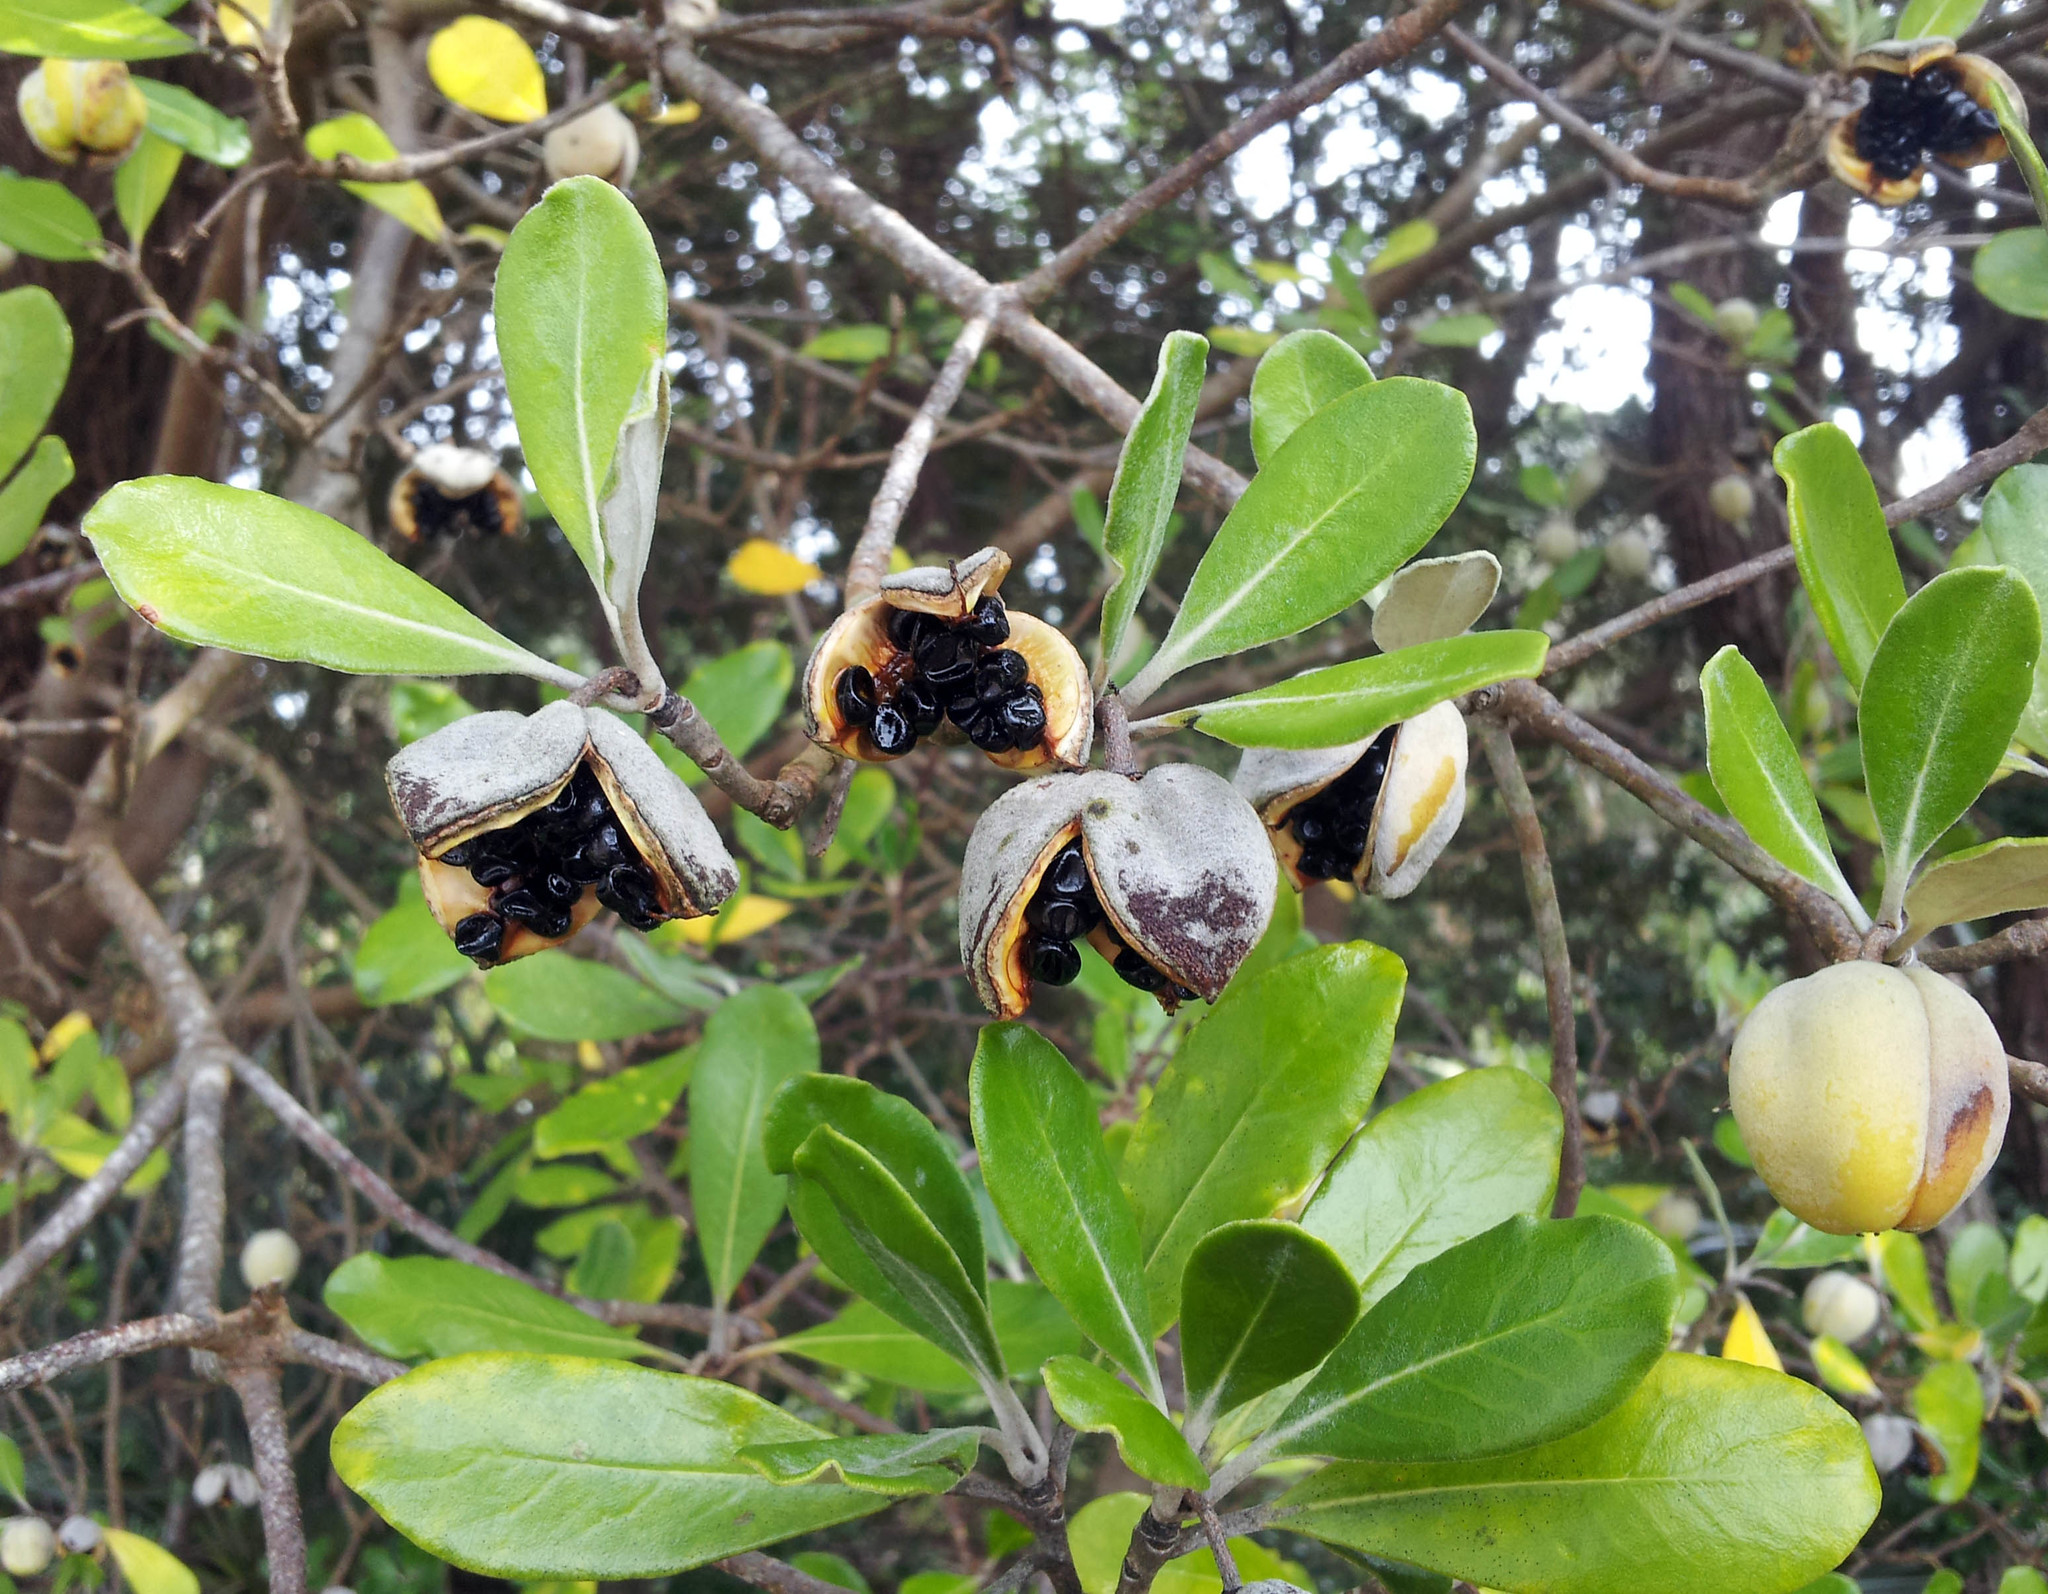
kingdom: Plantae
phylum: Tracheophyta
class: Magnoliopsida
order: Apiales
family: Pittosporaceae
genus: Pittosporum
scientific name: Pittosporum crassifolium
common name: Karo
